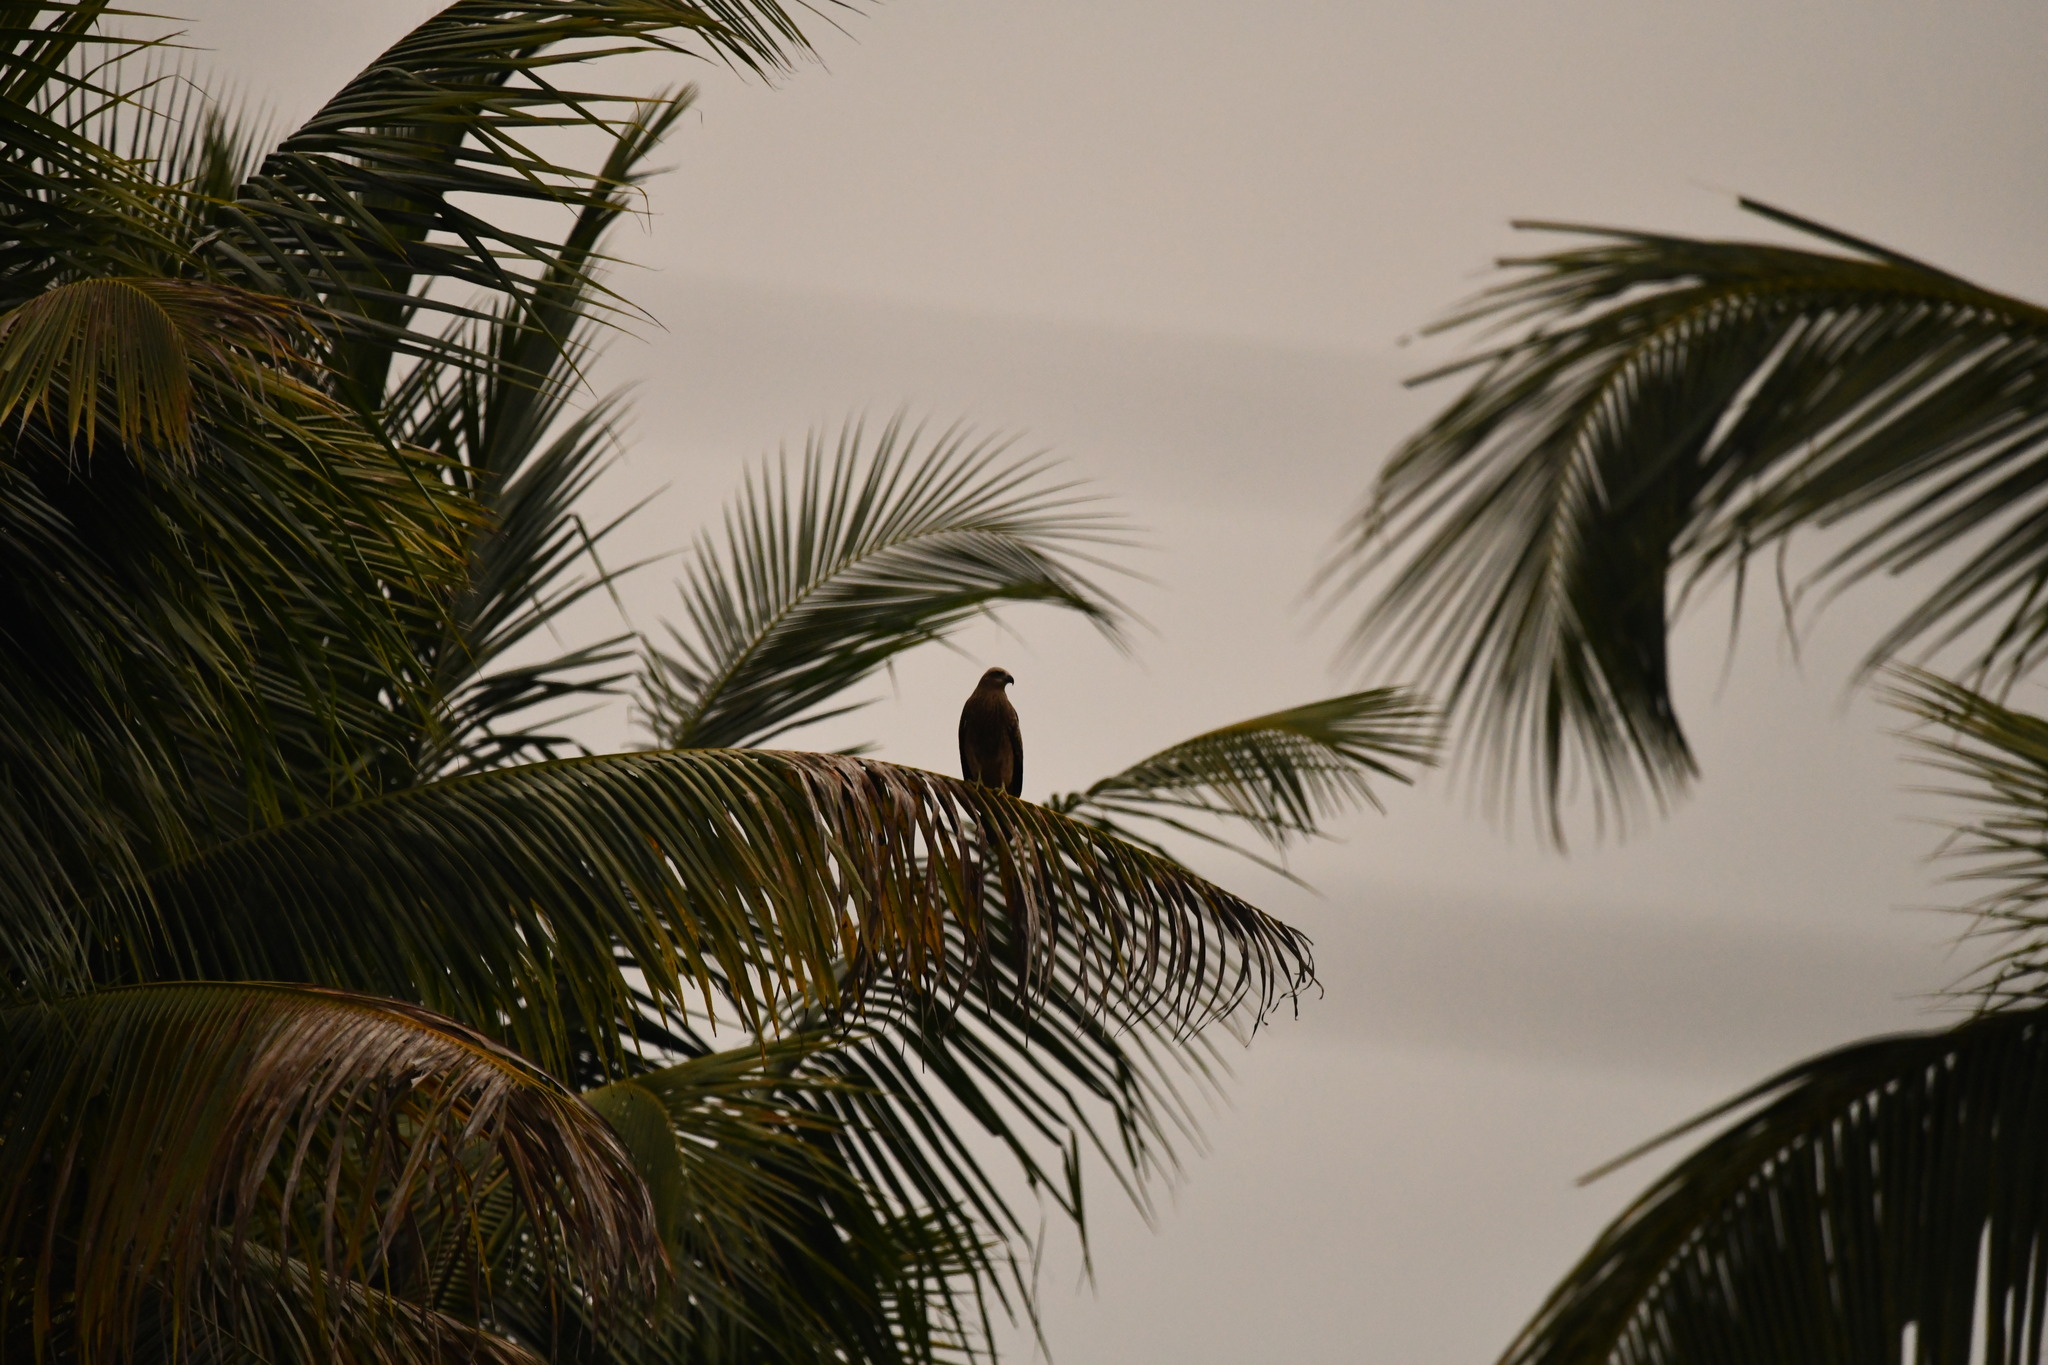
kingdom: Animalia
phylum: Chordata
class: Aves
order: Accipitriformes
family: Accipitridae
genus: Haliastur
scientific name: Haliastur indus
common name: Brahminy kite
